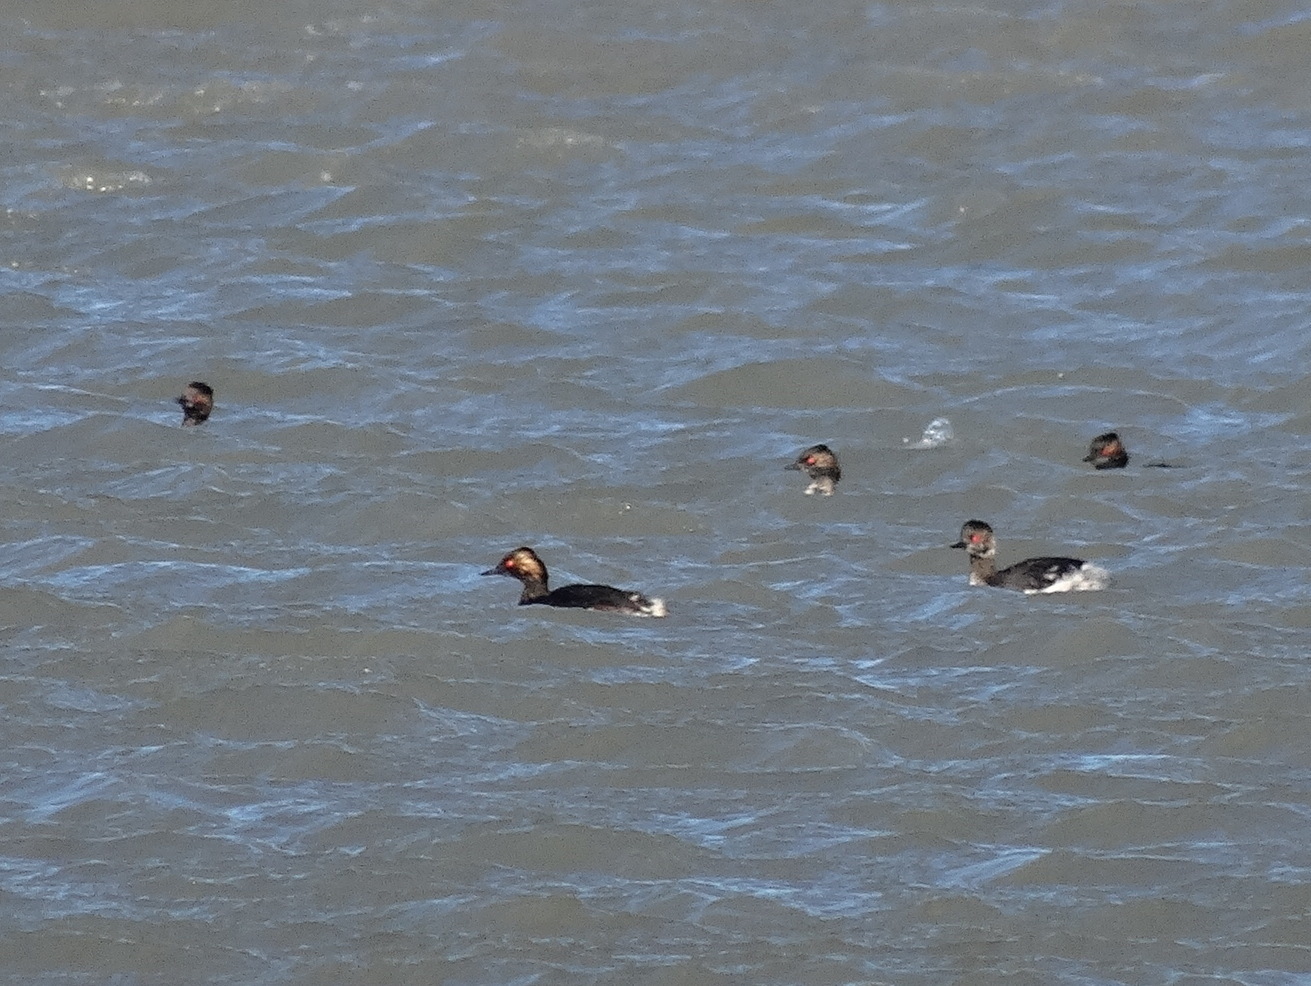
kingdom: Animalia
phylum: Chordata
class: Aves
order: Podicipediformes
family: Podicipedidae
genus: Podiceps
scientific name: Podiceps nigricollis
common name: Black-necked grebe
